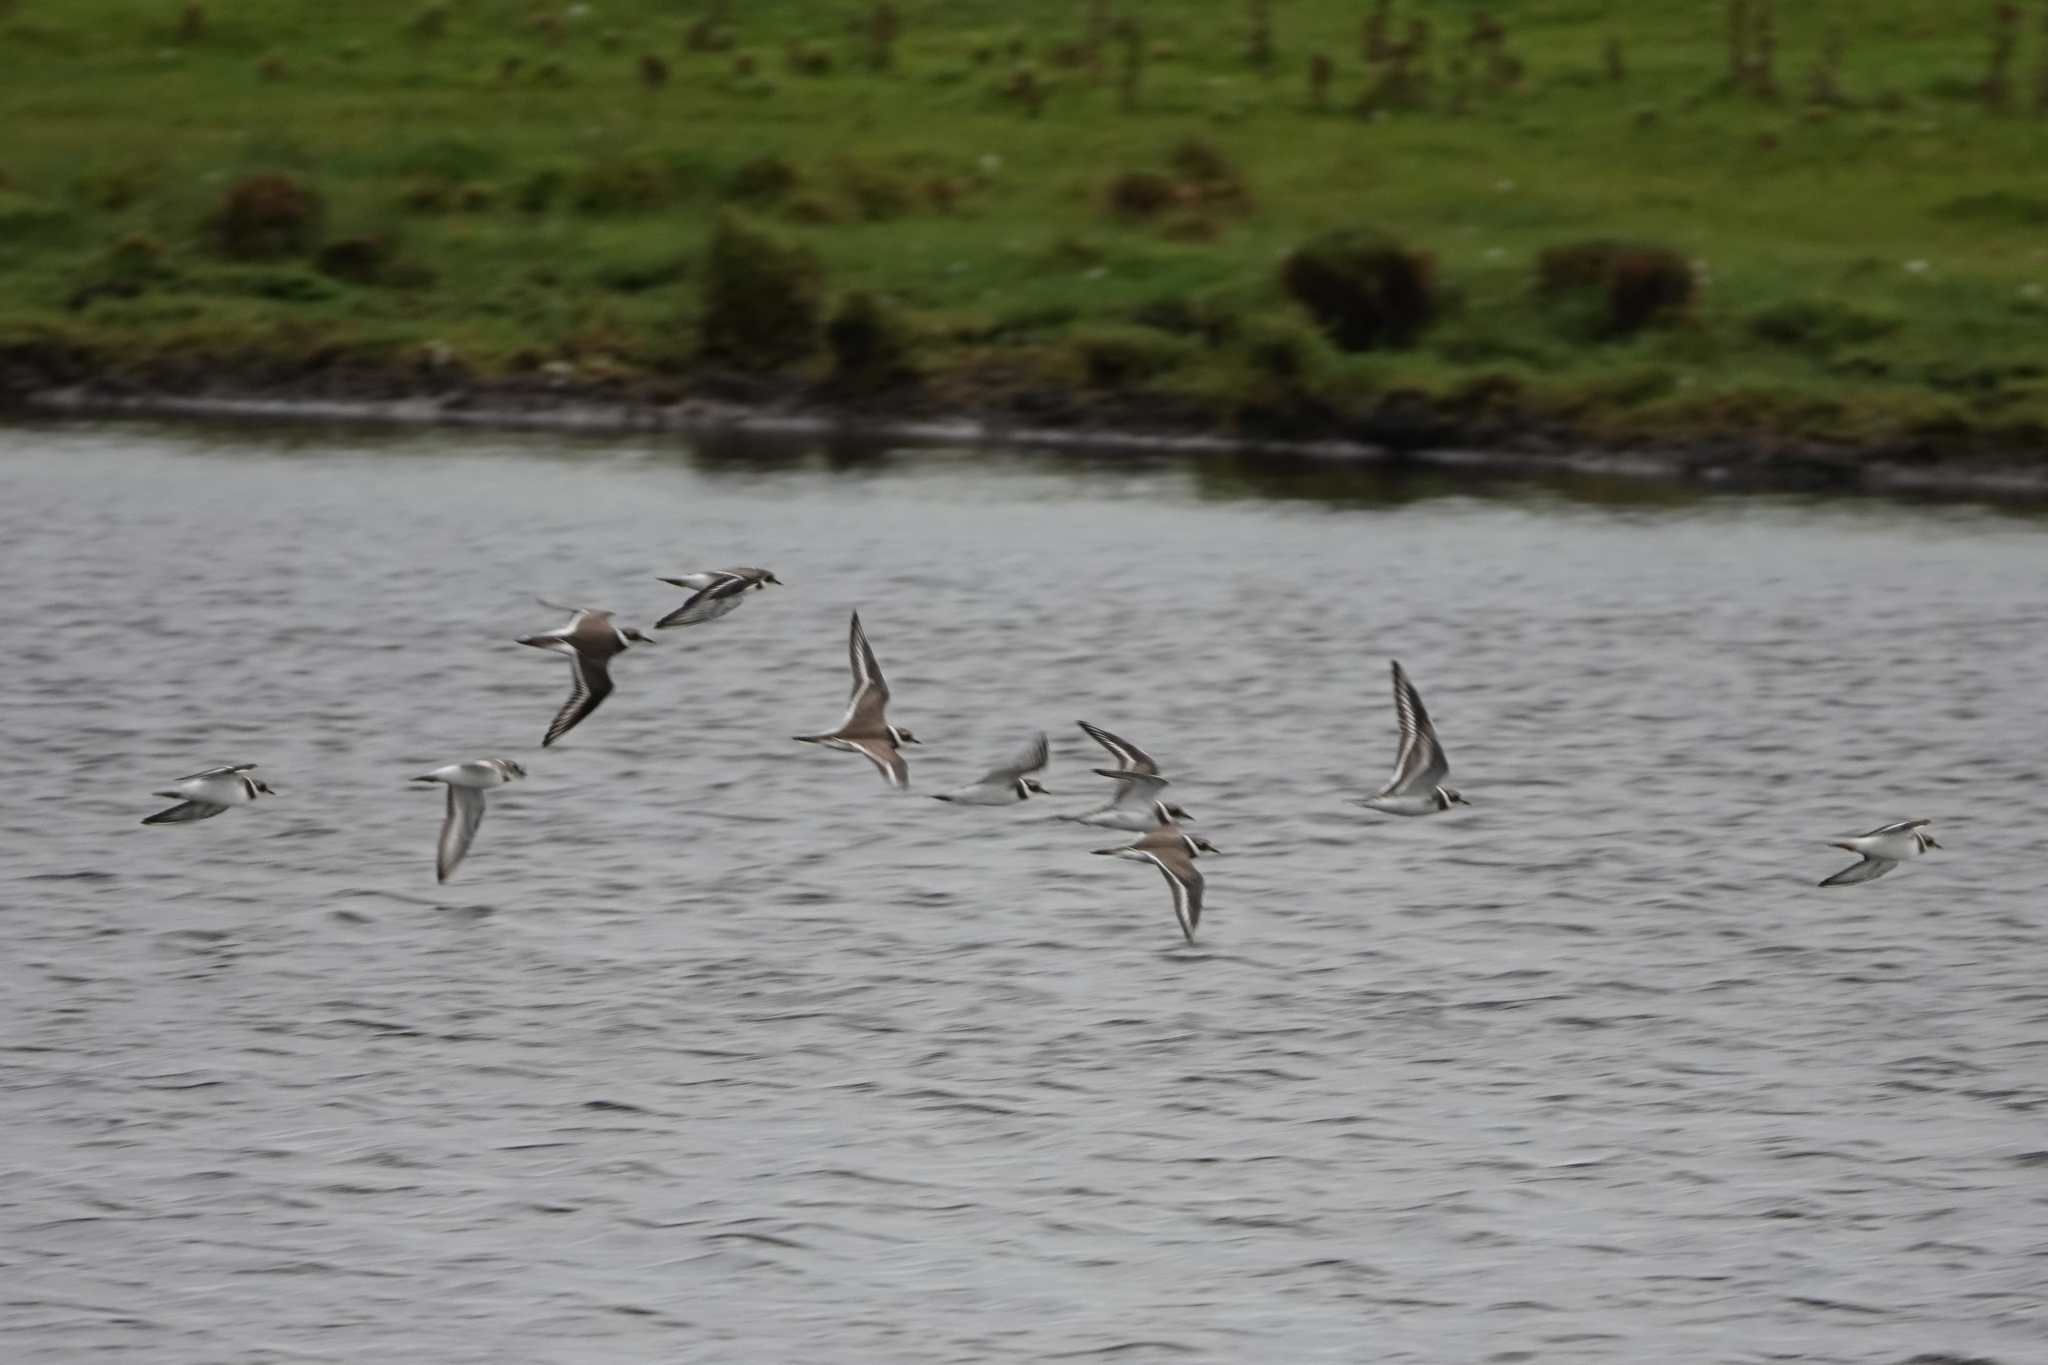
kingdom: Animalia
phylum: Chordata
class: Aves
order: Charadriiformes
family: Charadriidae
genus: Charadrius
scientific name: Charadrius hiaticula
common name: Common ringed plover
